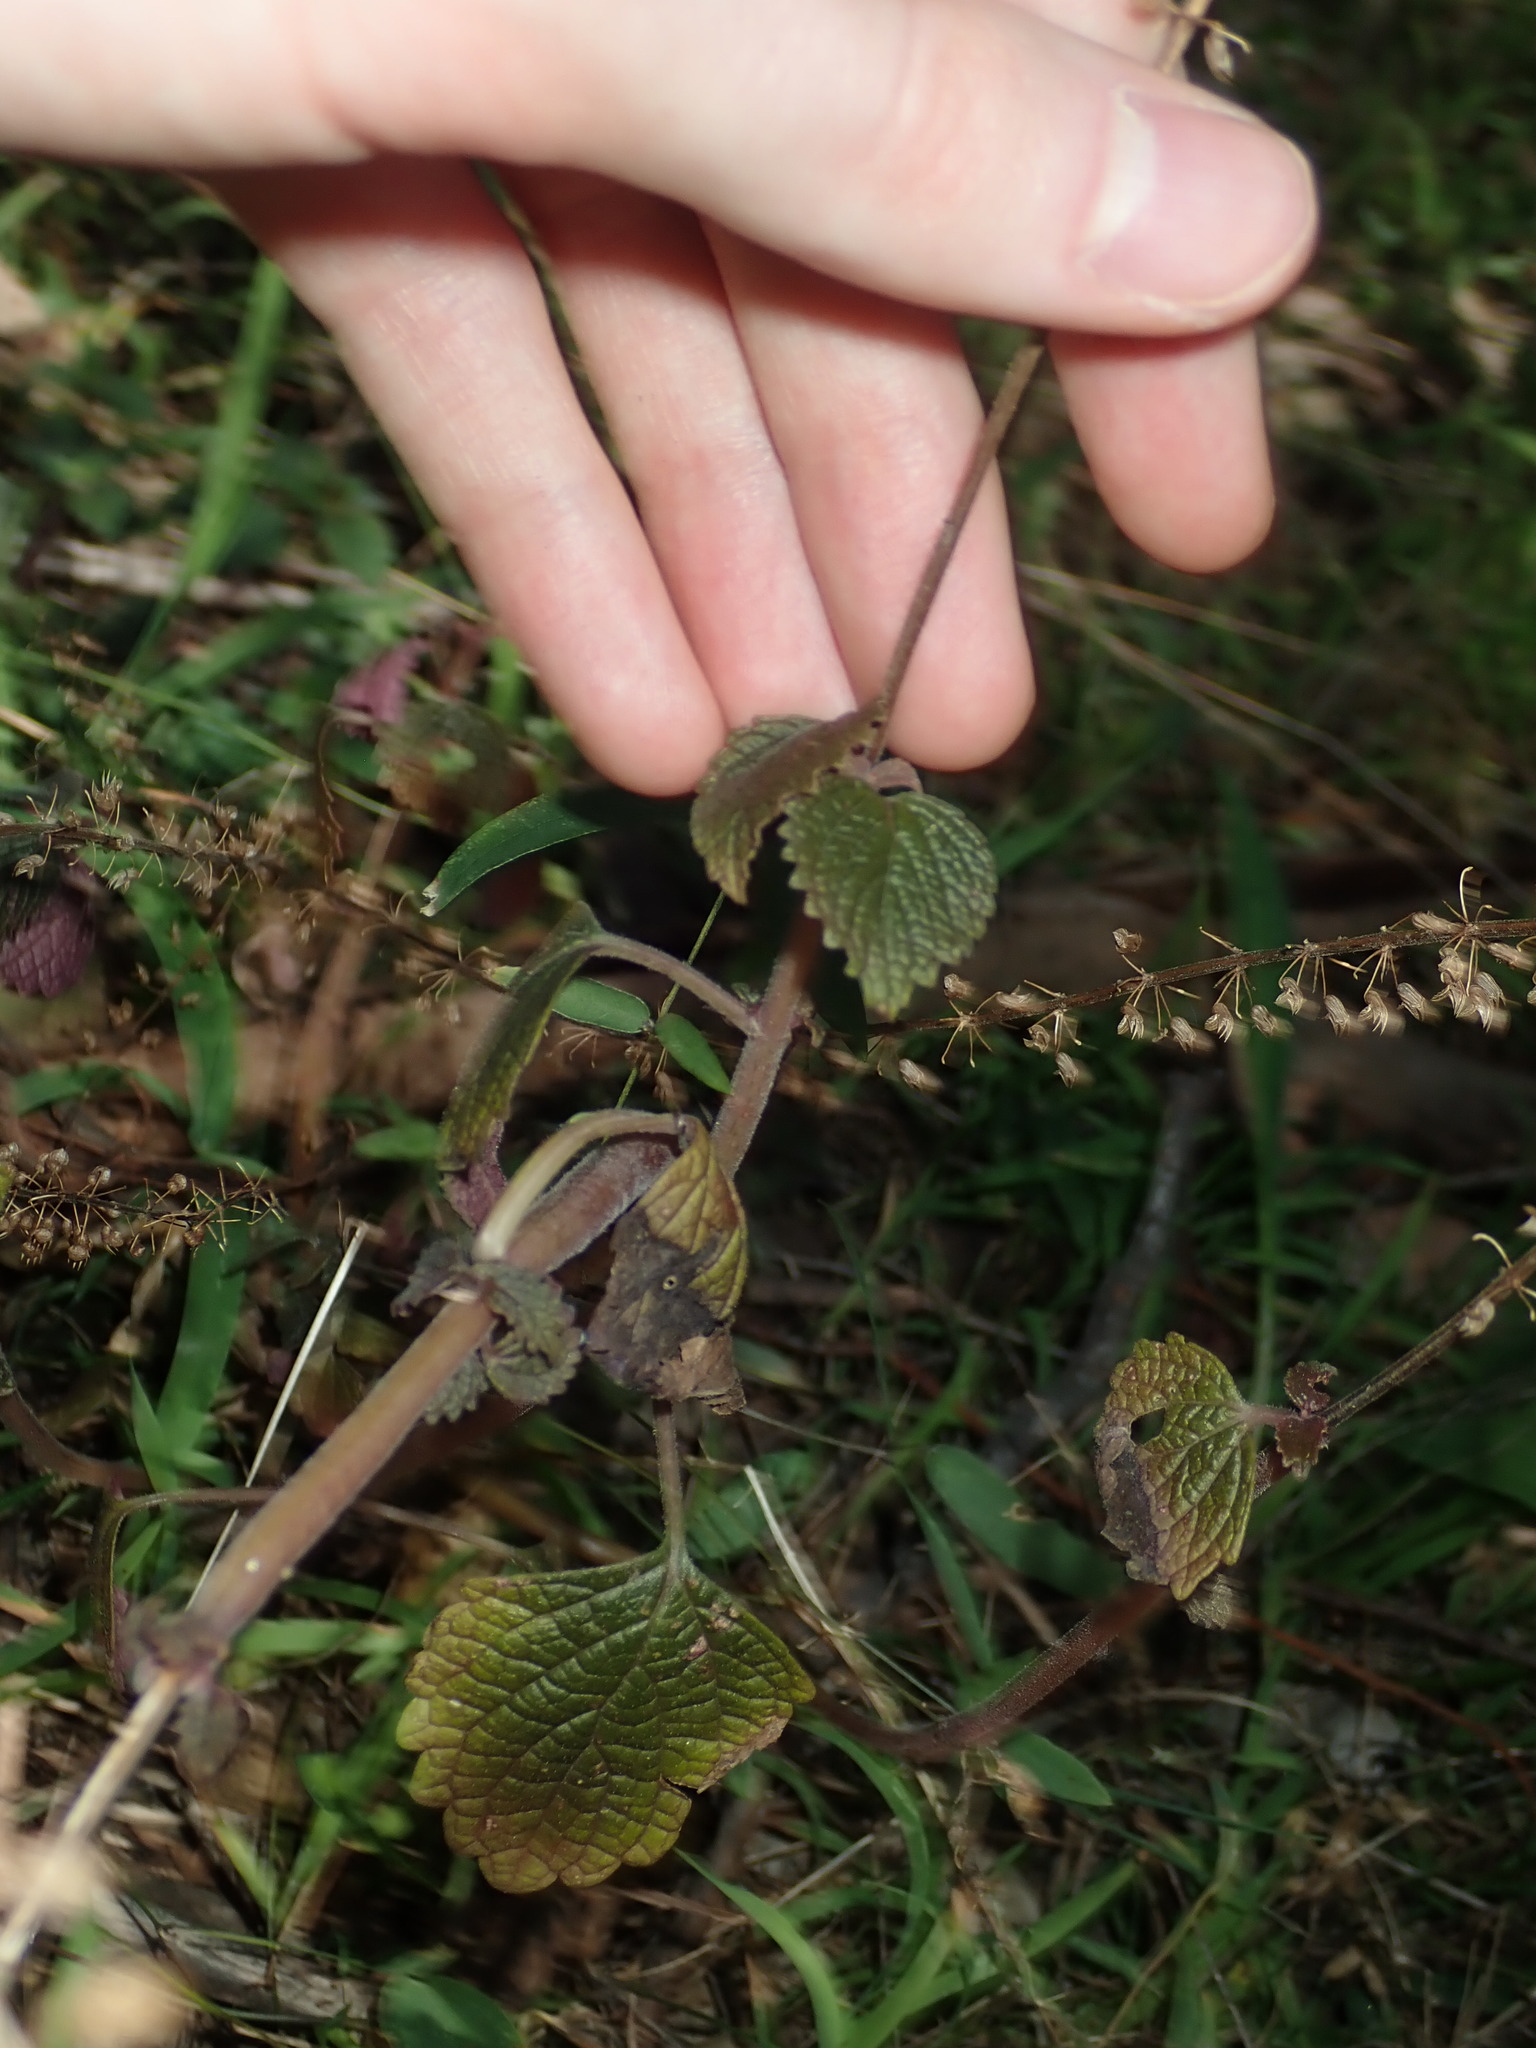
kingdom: Plantae
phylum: Tracheophyta
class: Magnoliopsida
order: Lamiales
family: Lamiaceae
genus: Coleus
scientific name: Coleus australis
